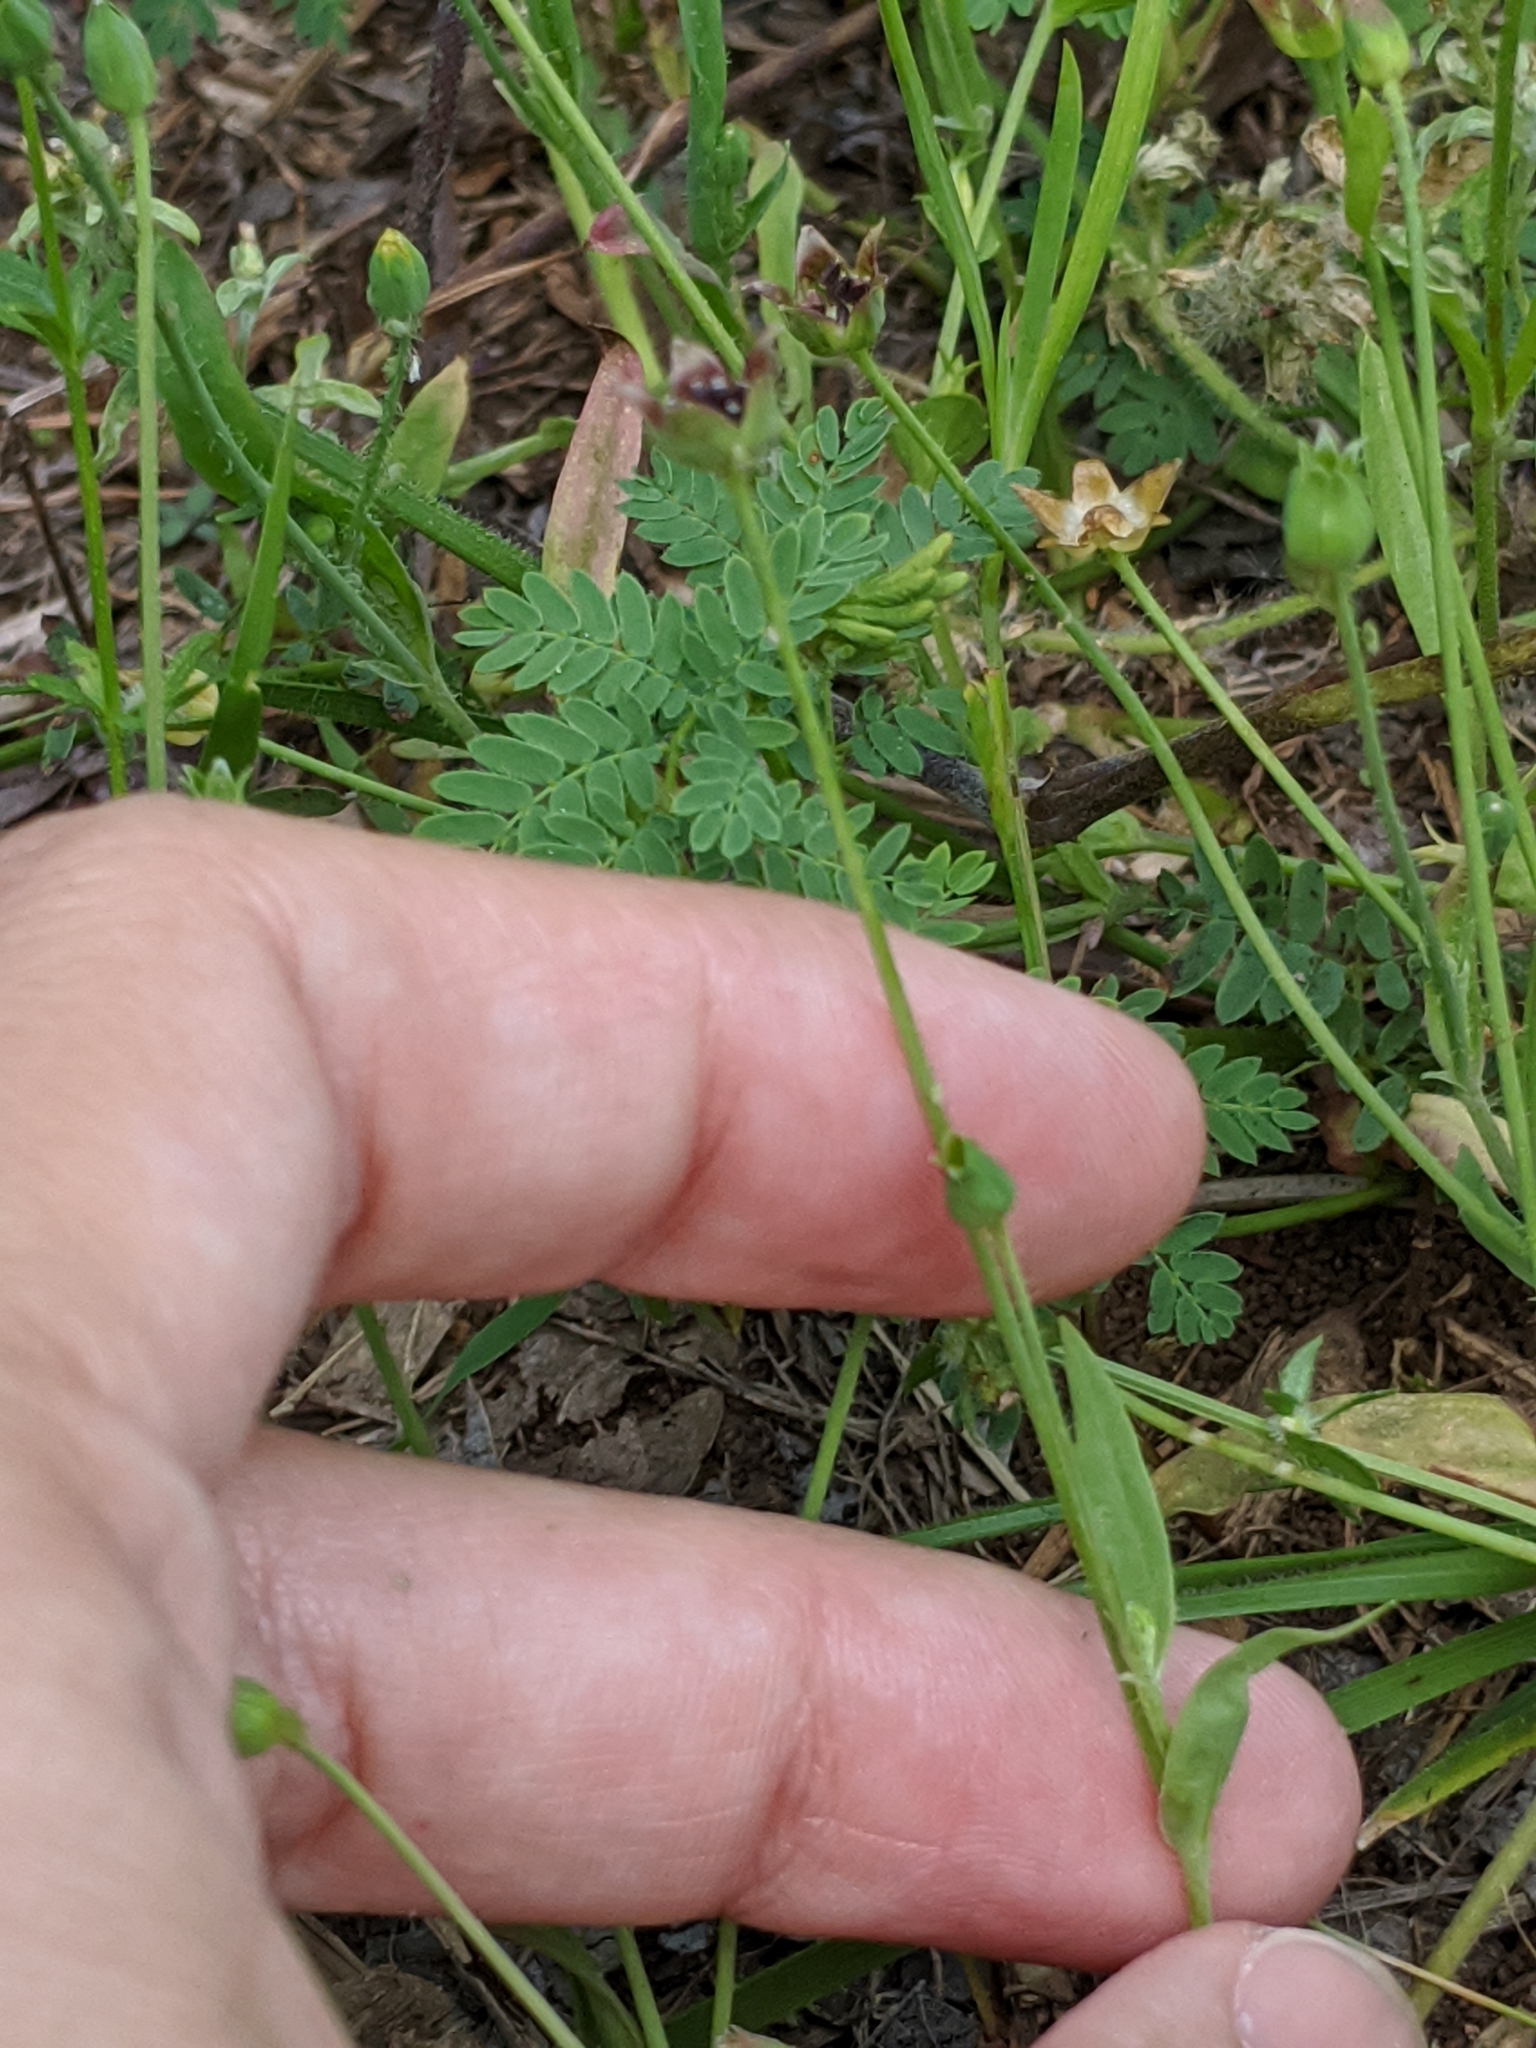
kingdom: Plantae
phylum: Tracheophyta
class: Magnoliopsida
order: Asterales
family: Asteraceae
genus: Krigia
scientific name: Krigia wrightii
